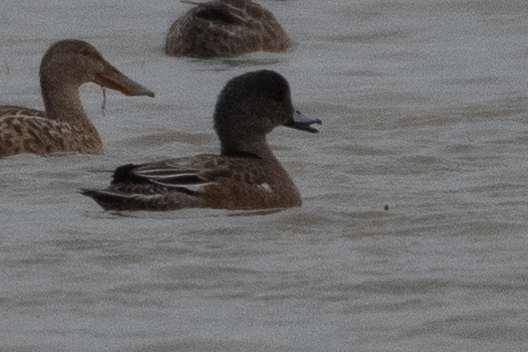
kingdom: Animalia
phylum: Chordata
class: Aves
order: Anseriformes
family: Anatidae
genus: Mareca
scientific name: Mareca americana
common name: American wigeon
